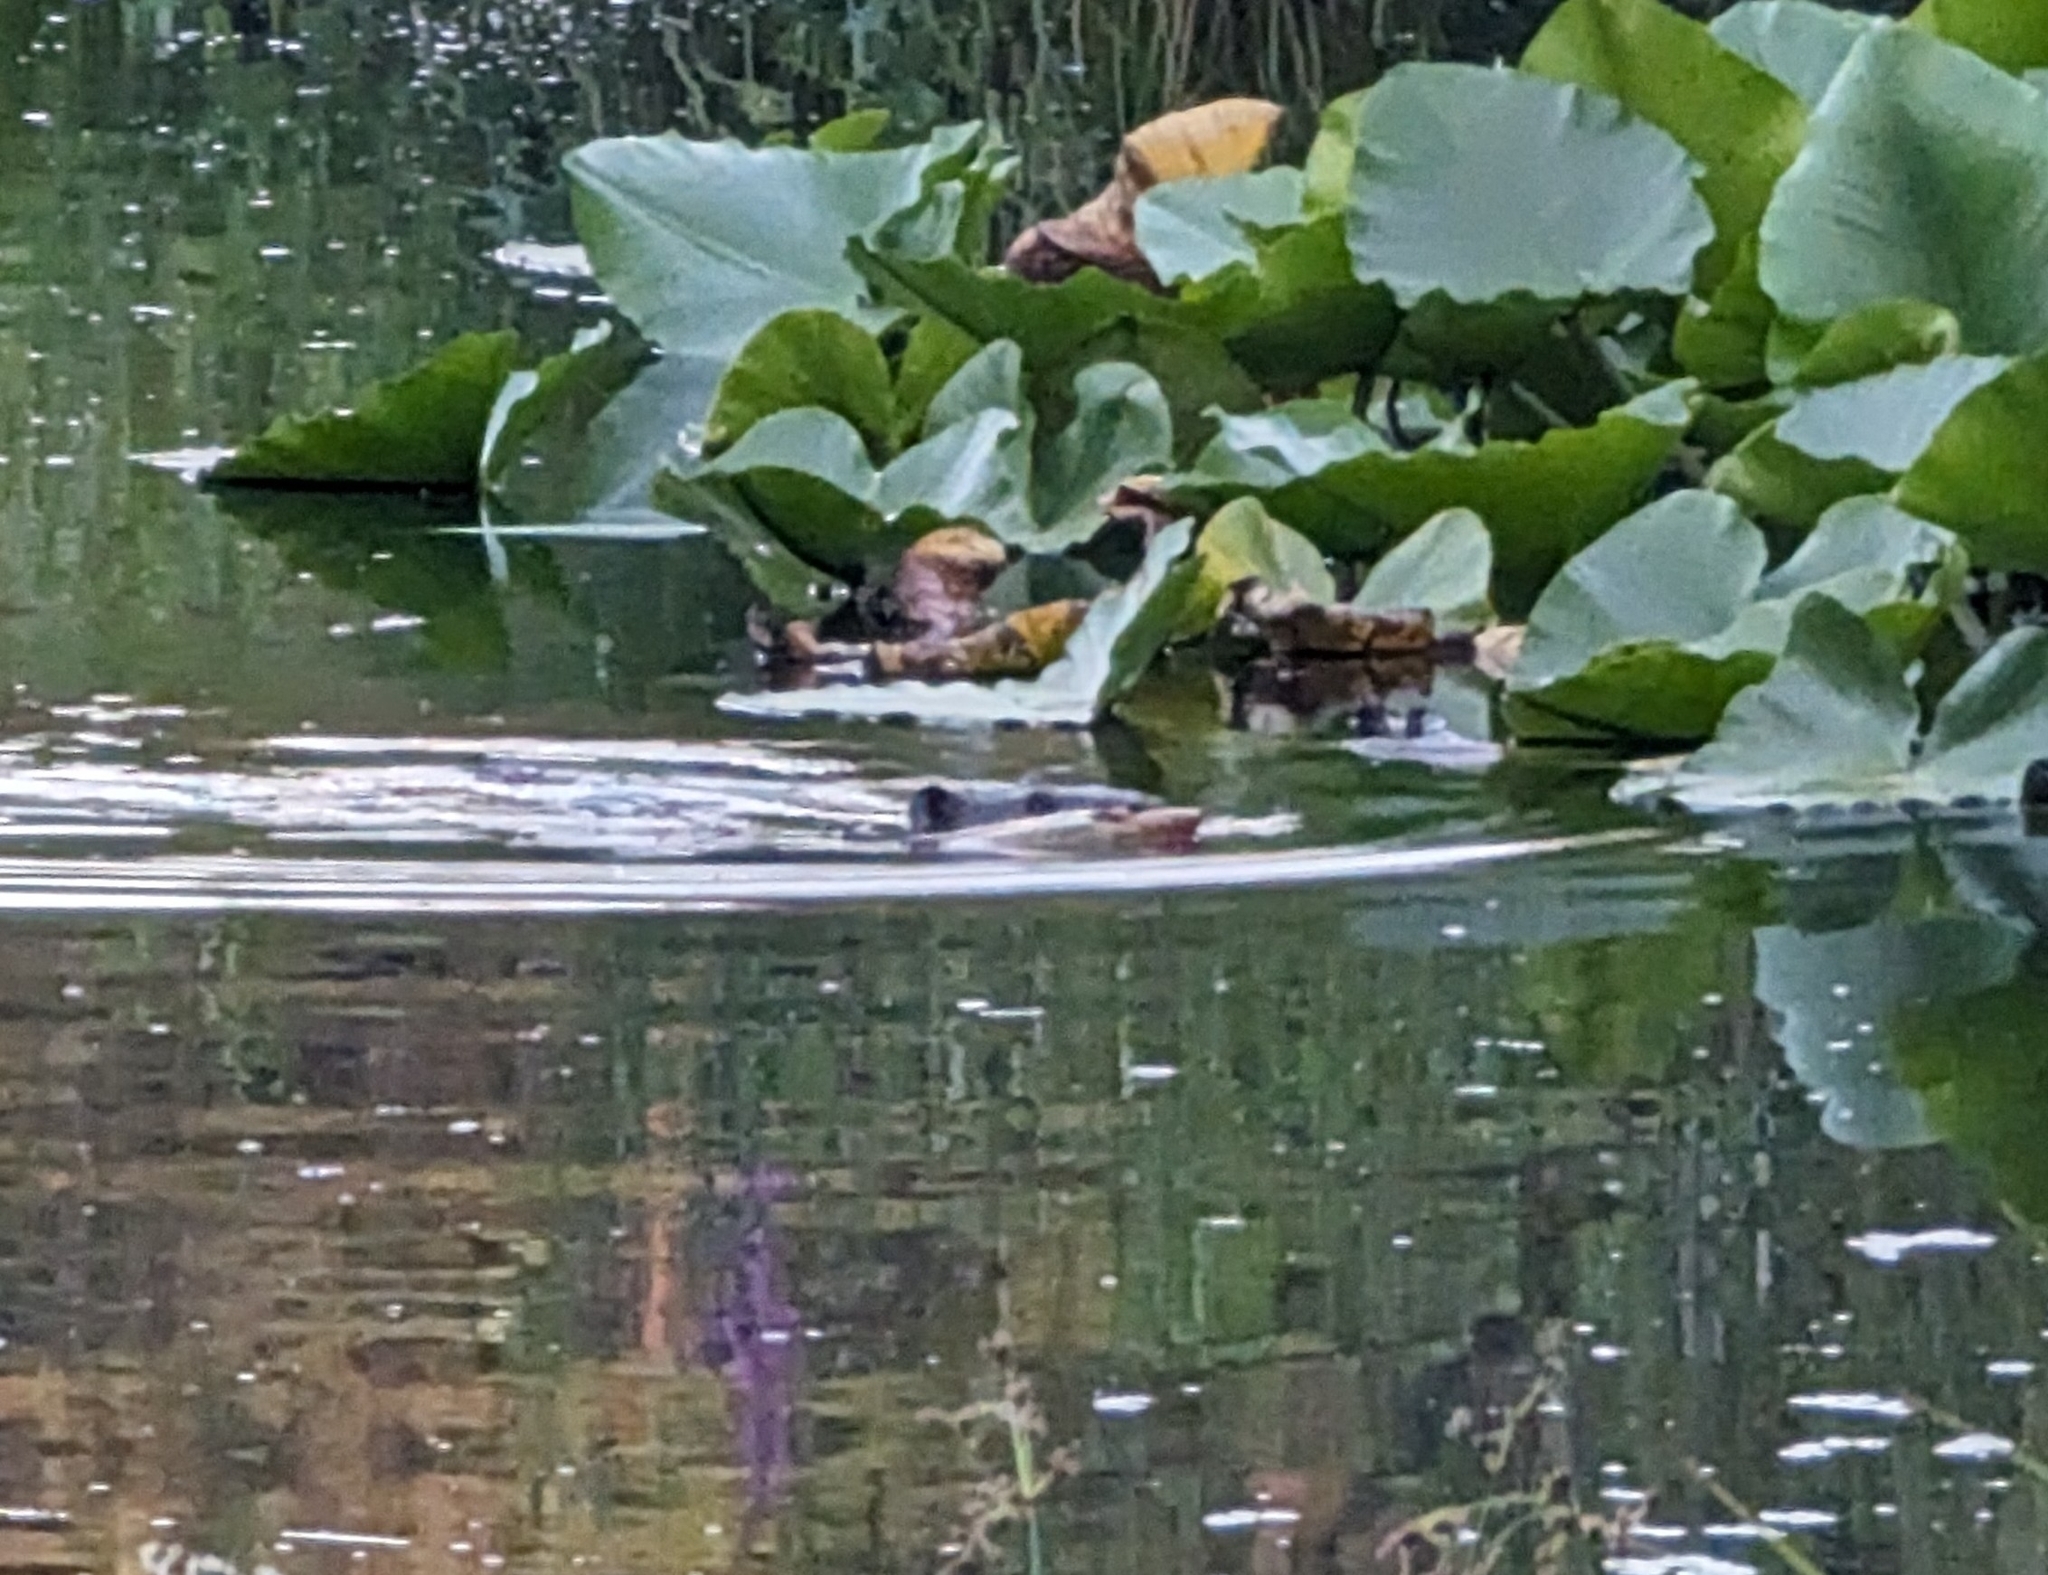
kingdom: Animalia
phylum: Chordata
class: Mammalia
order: Rodentia
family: Castoridae
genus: Castor
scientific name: Castor canadensis
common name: American beaver
